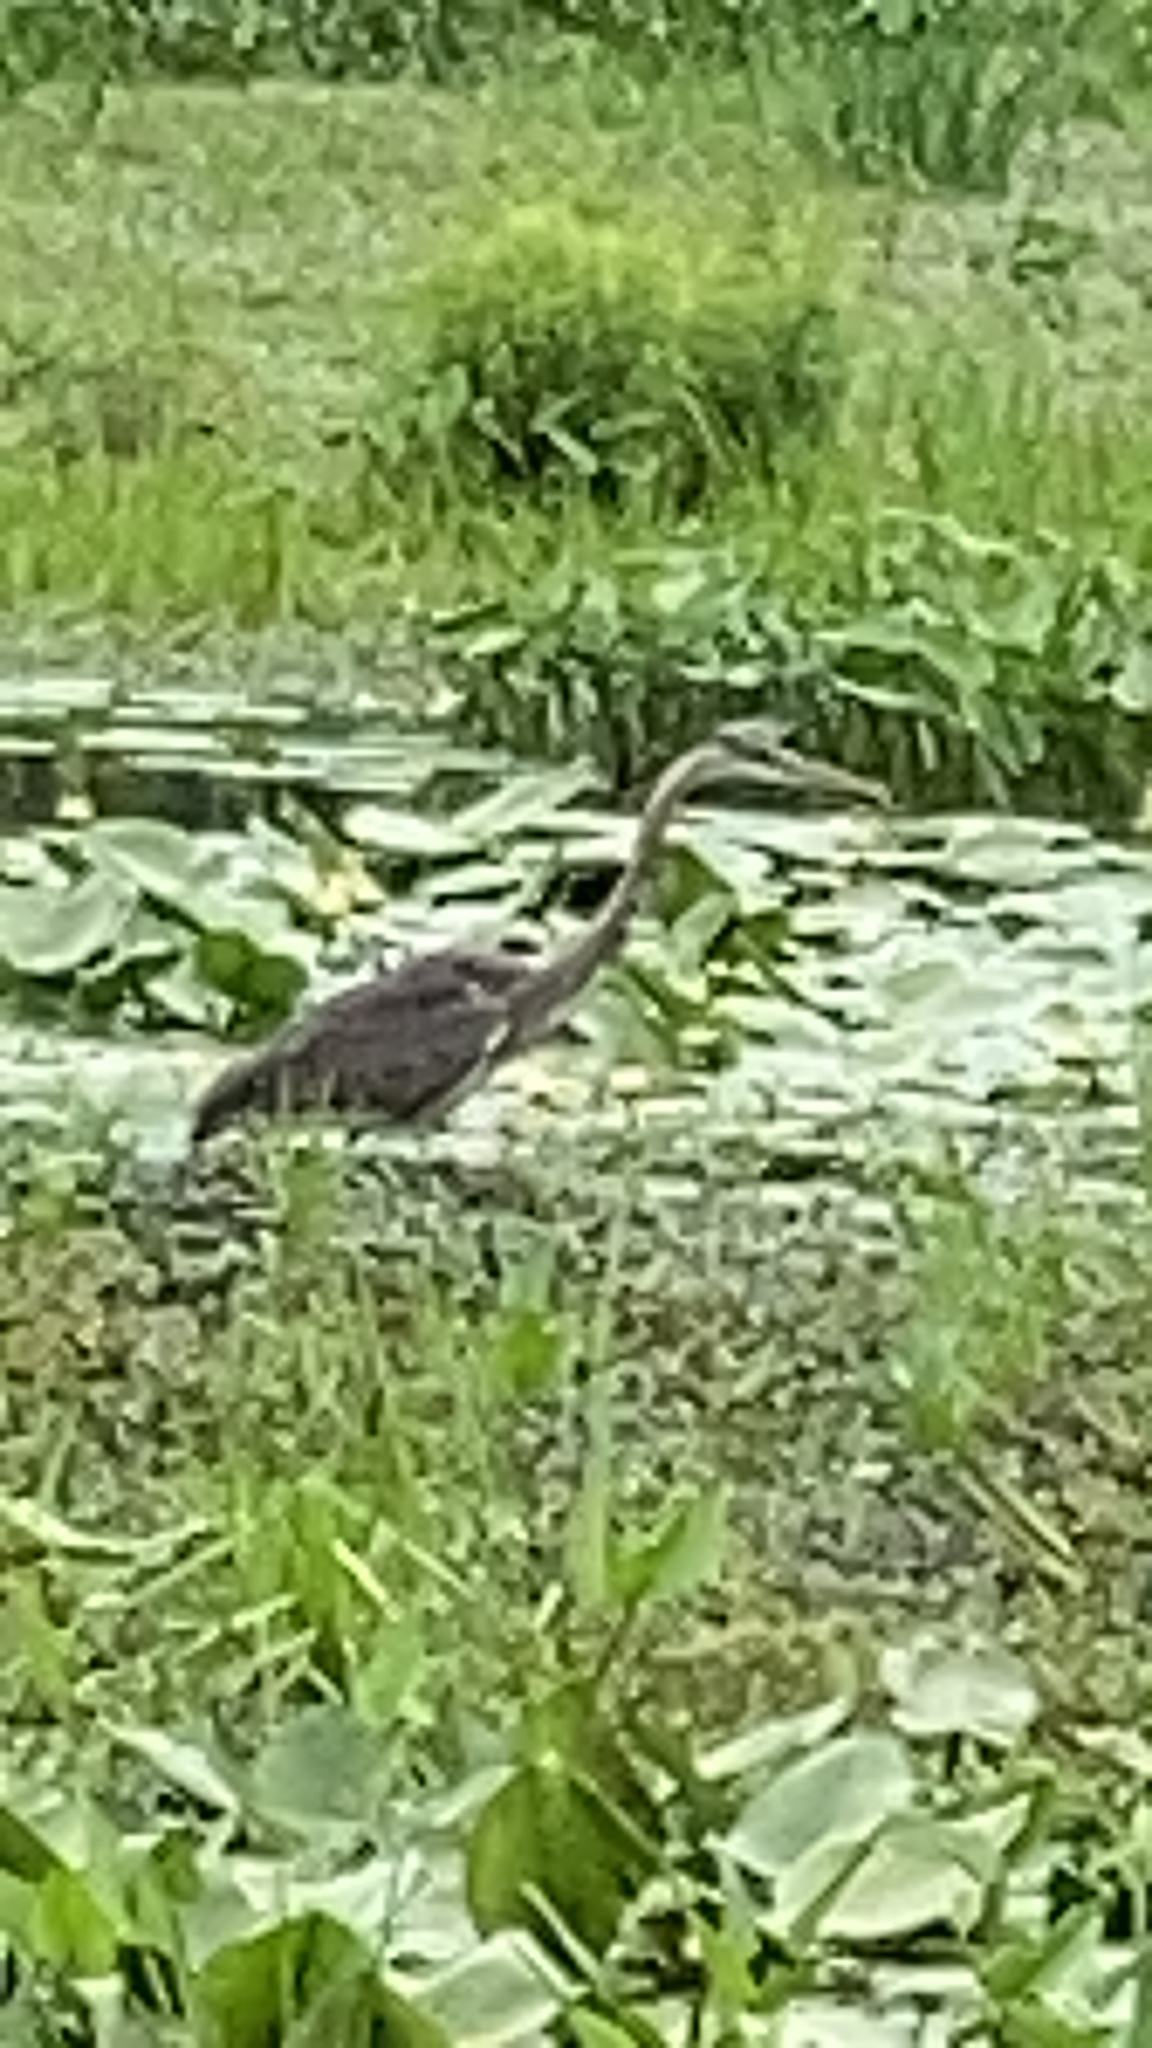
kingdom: Animalia
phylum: Chordata
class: Aves
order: Pelecaniformes
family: Ardeidae
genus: Ardea
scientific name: Ardea herodias
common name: Great blue heron
